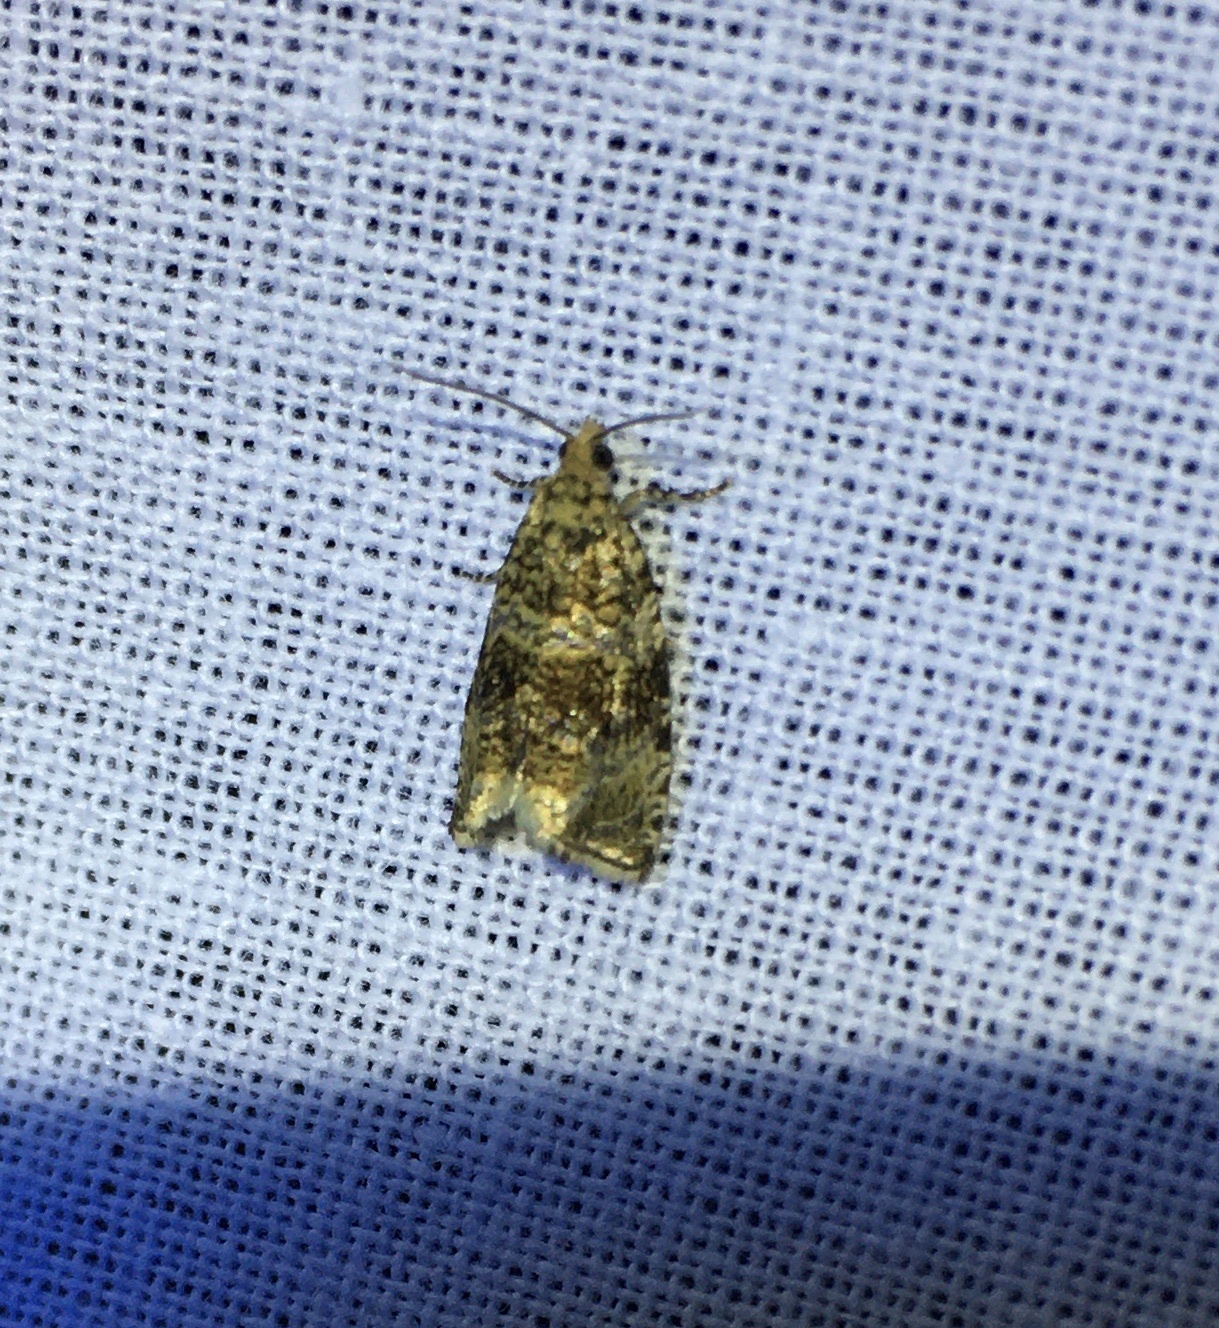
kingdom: Animalia
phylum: Arthropoda
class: Insecta
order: Lepidoptera
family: Tortricidae
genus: Syricoris
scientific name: Syricoris lacunana
